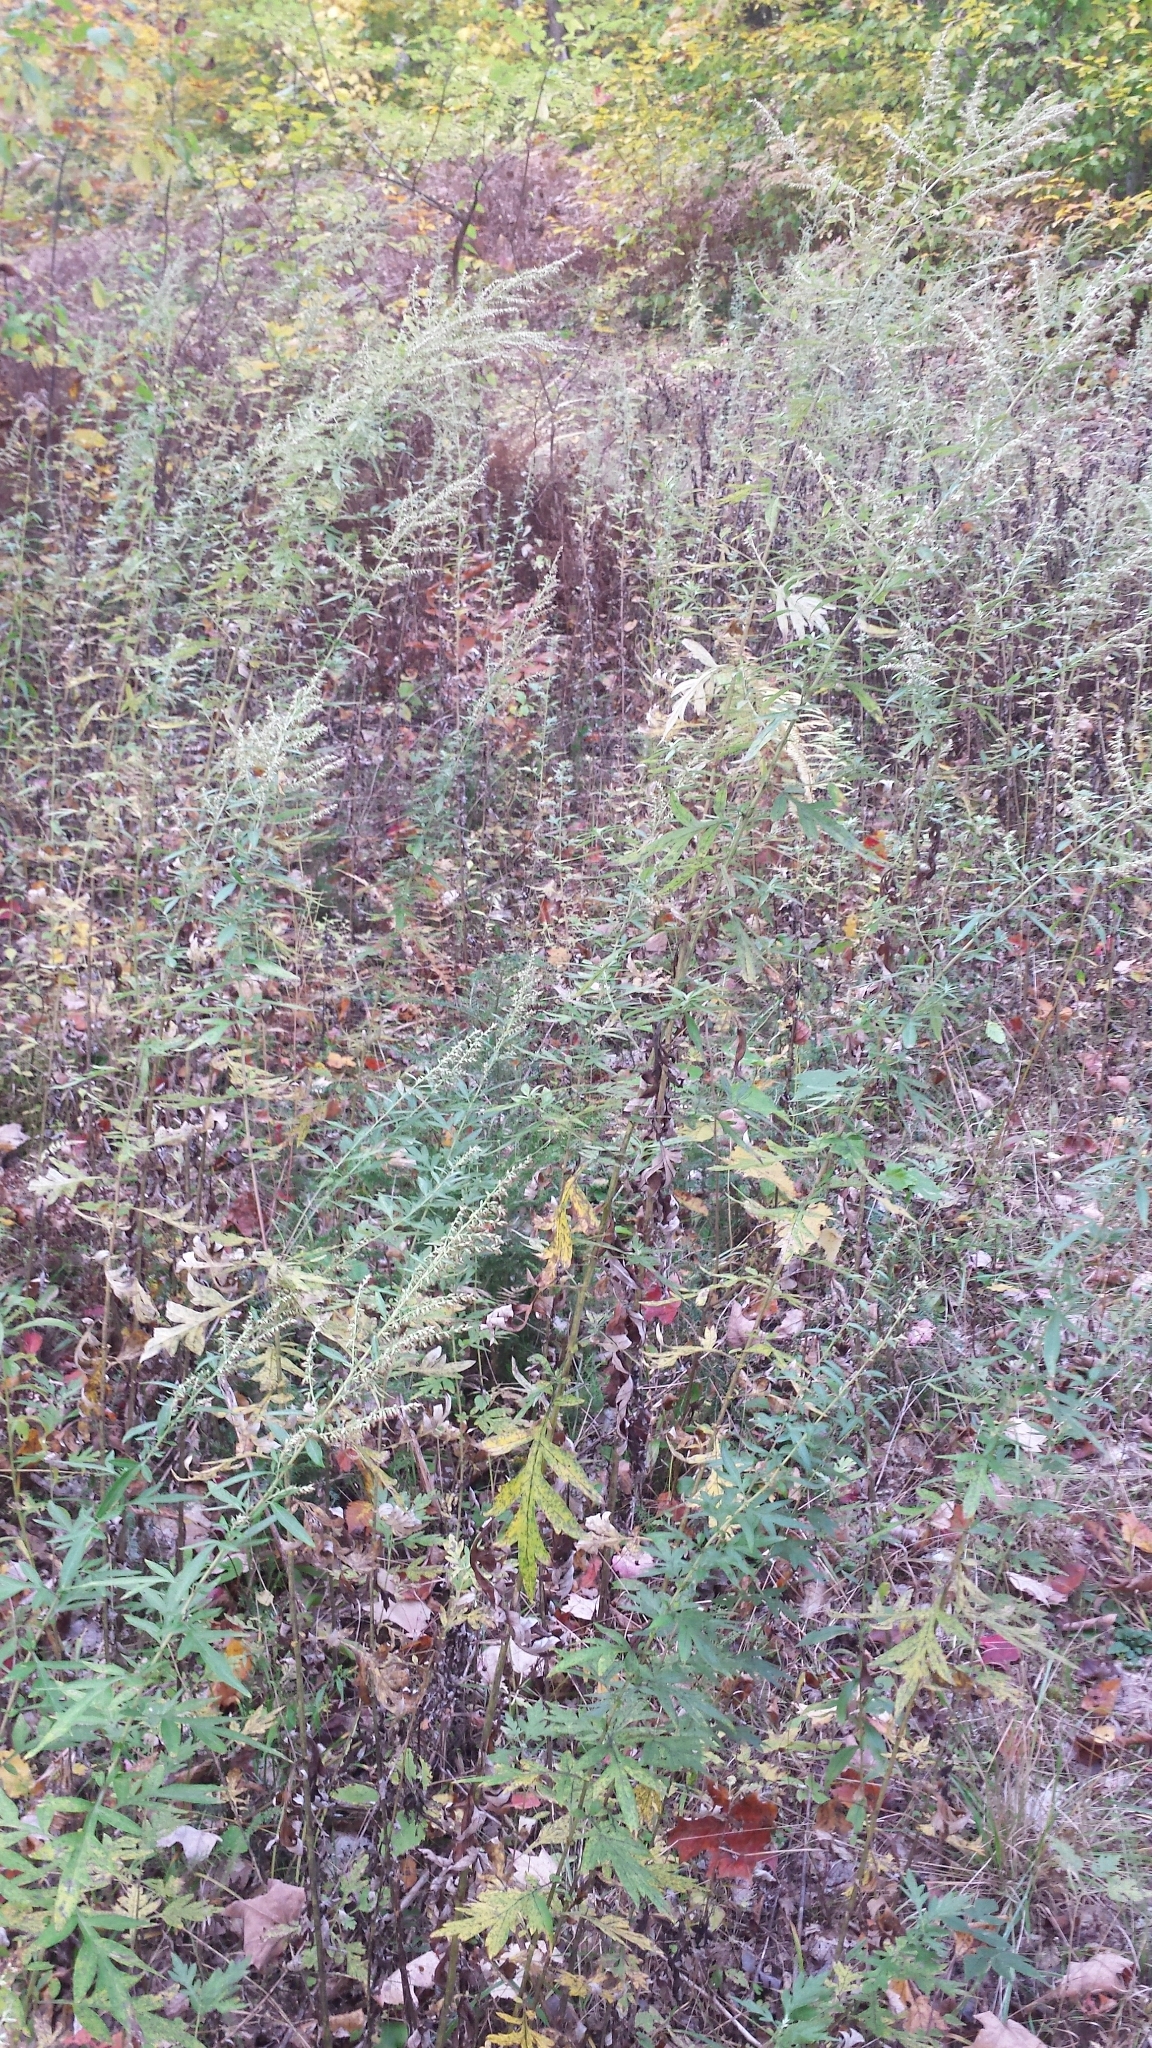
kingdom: Plantae
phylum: Tracheophyta
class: Magnoliopsida
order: Asterales
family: Asteraceae
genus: Artemisia
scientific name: Artemisia vulgaris
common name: Mugwort
